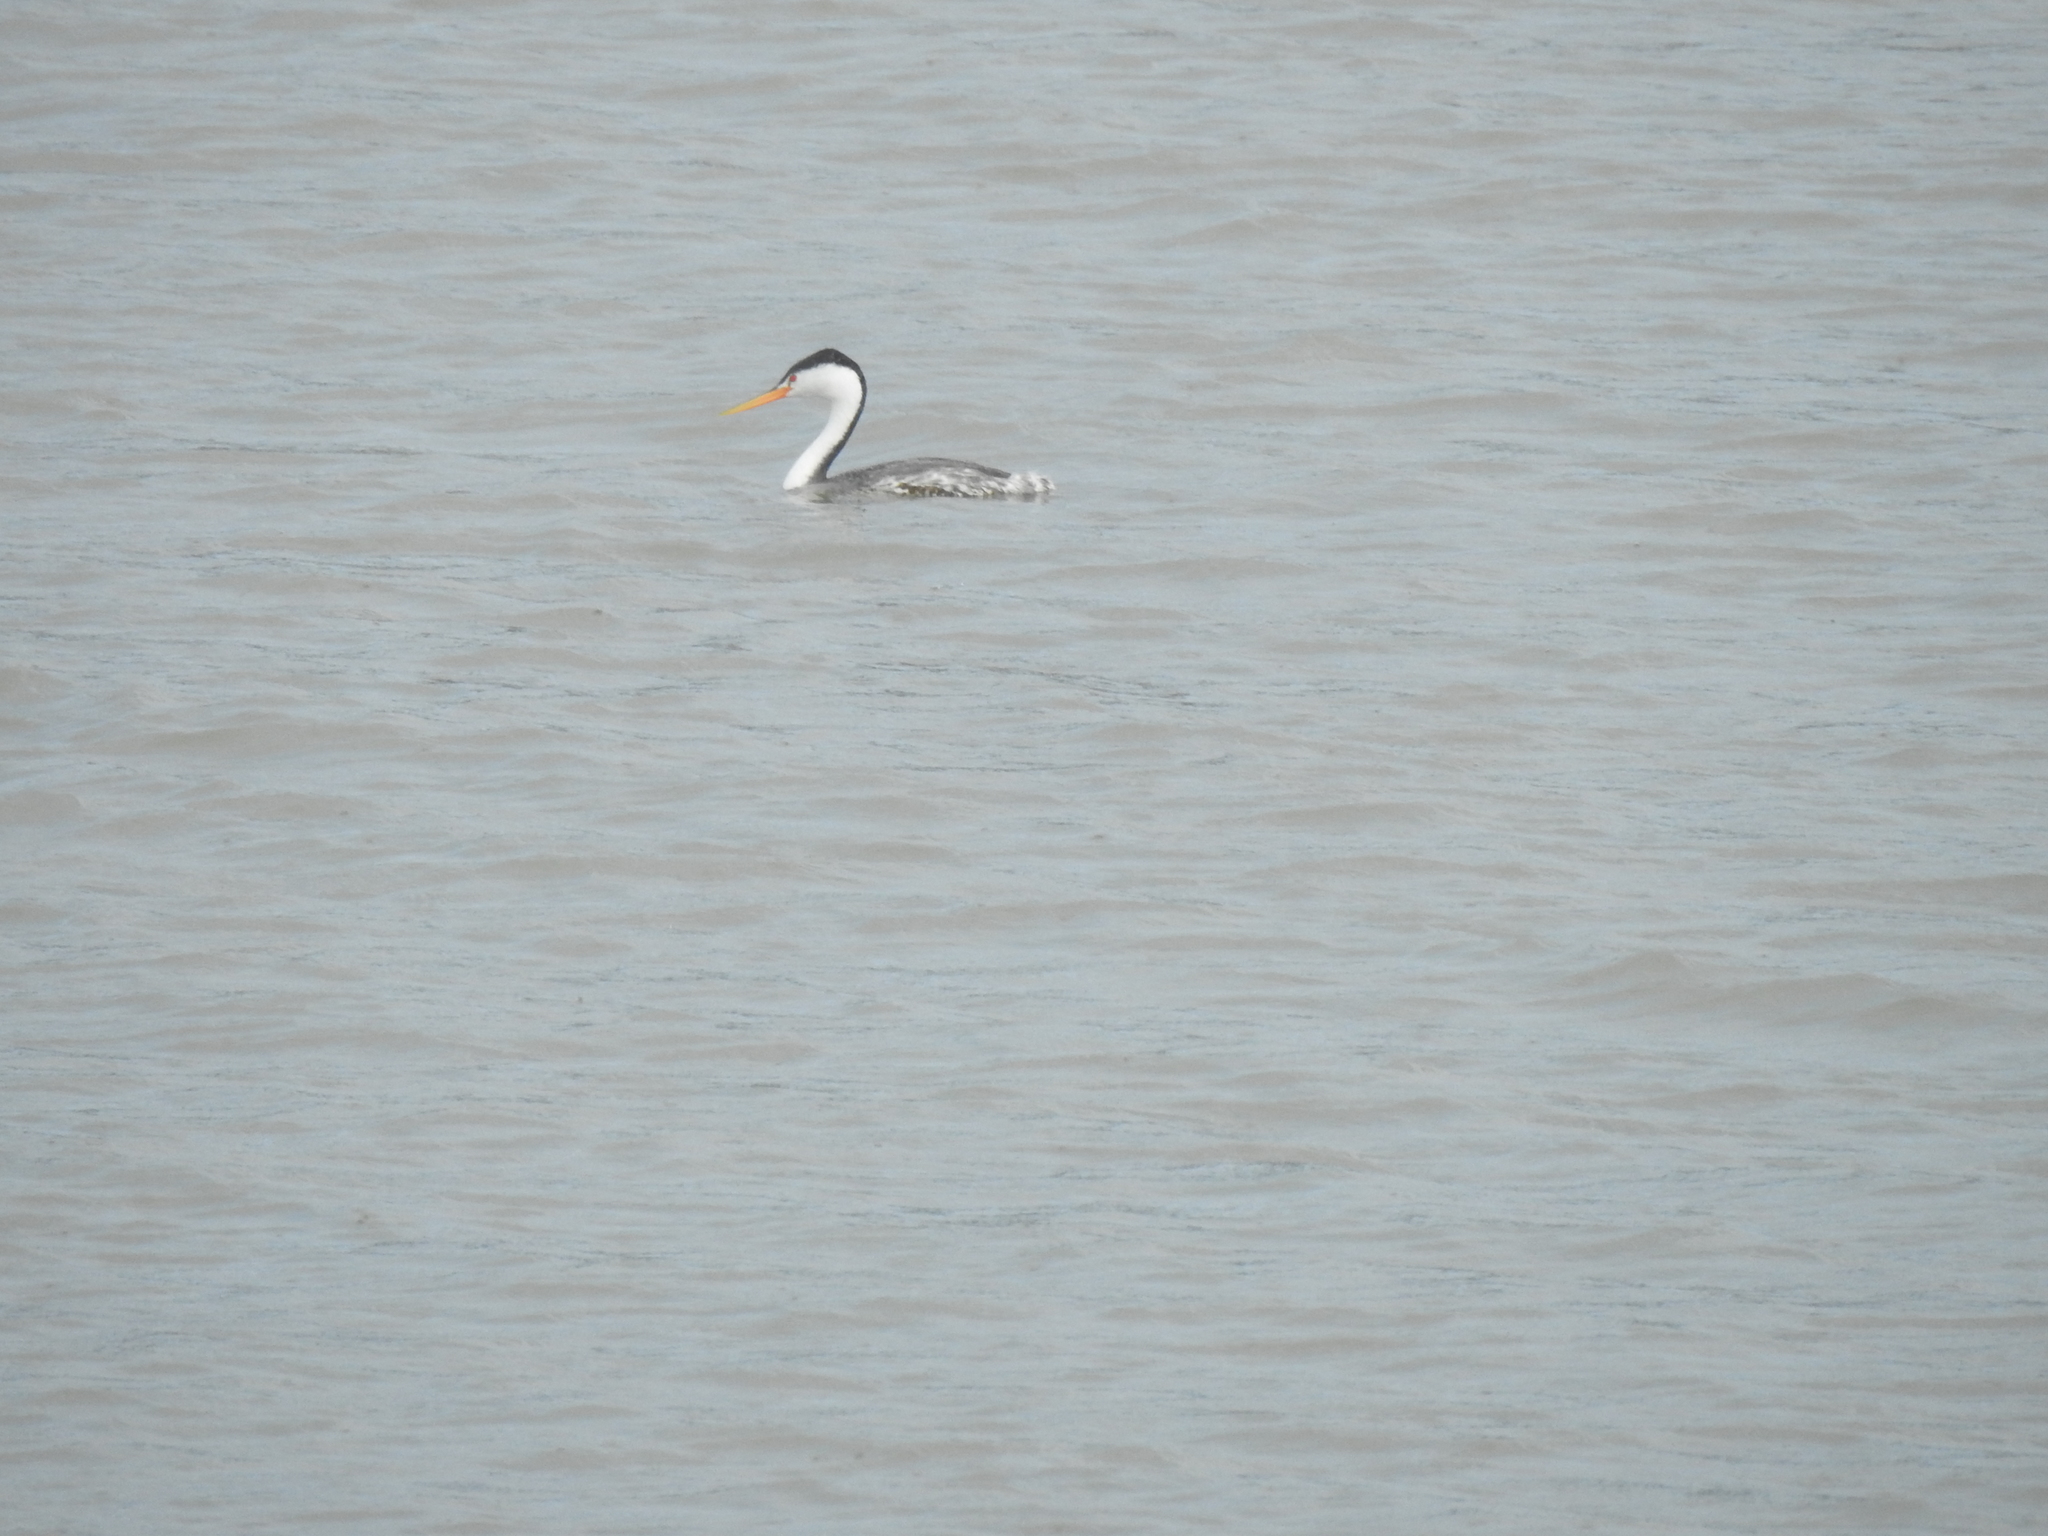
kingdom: Animalia
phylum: Chordata
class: Aves
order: Podicipediformes
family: Podicipedidae
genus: Aechmophorus
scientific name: Aechmophorus clarkii
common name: Clark's grebe
